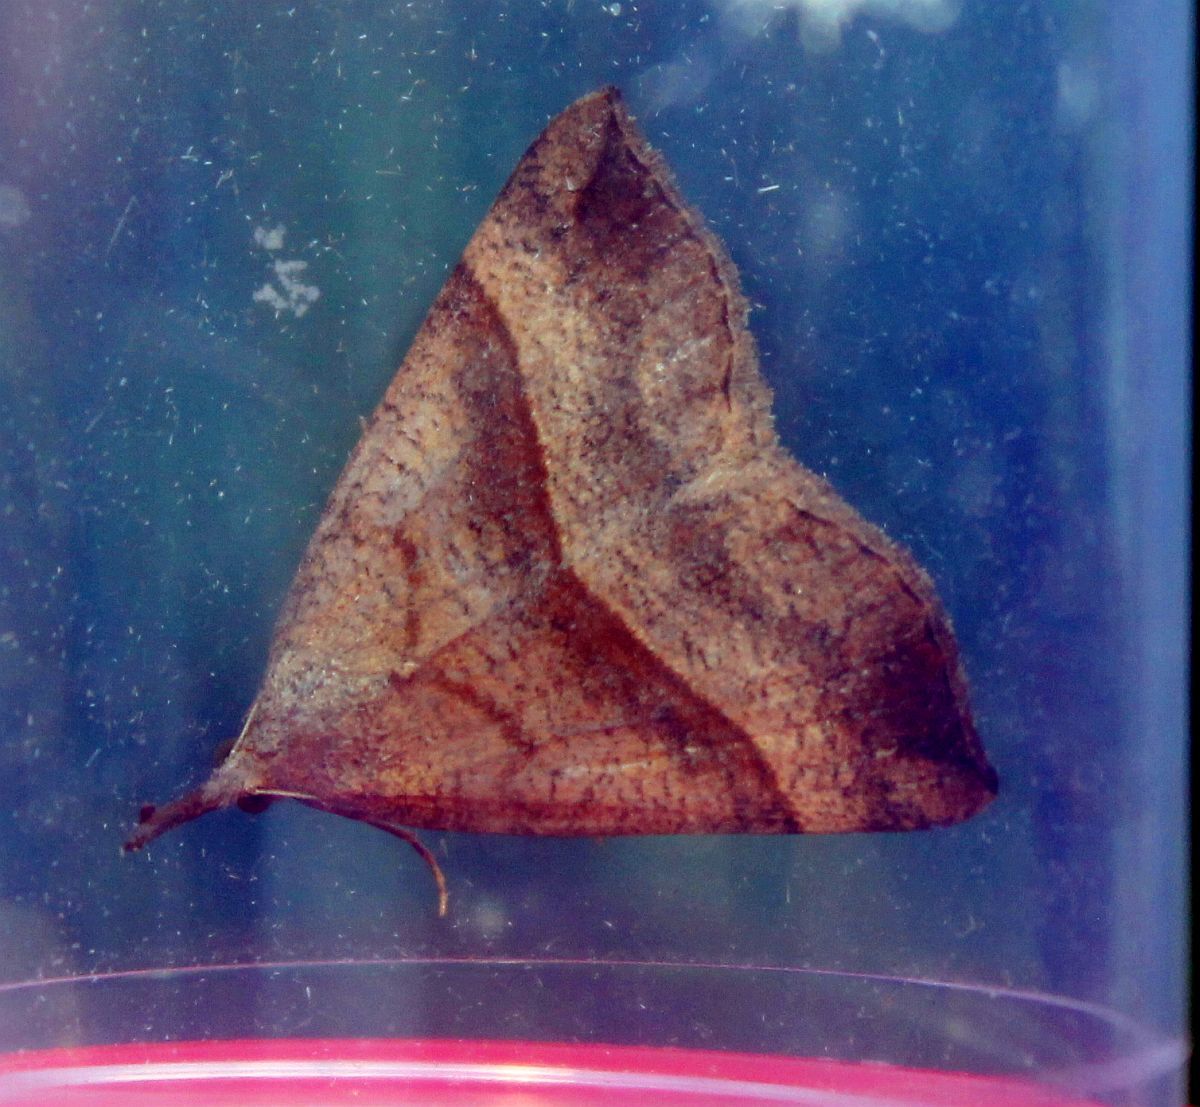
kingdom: Animalia
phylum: Arthropoda
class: Insecta
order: Lepidoptera
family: Erebidae
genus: Hypena
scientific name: Hypena proboscidalis
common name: Snout
